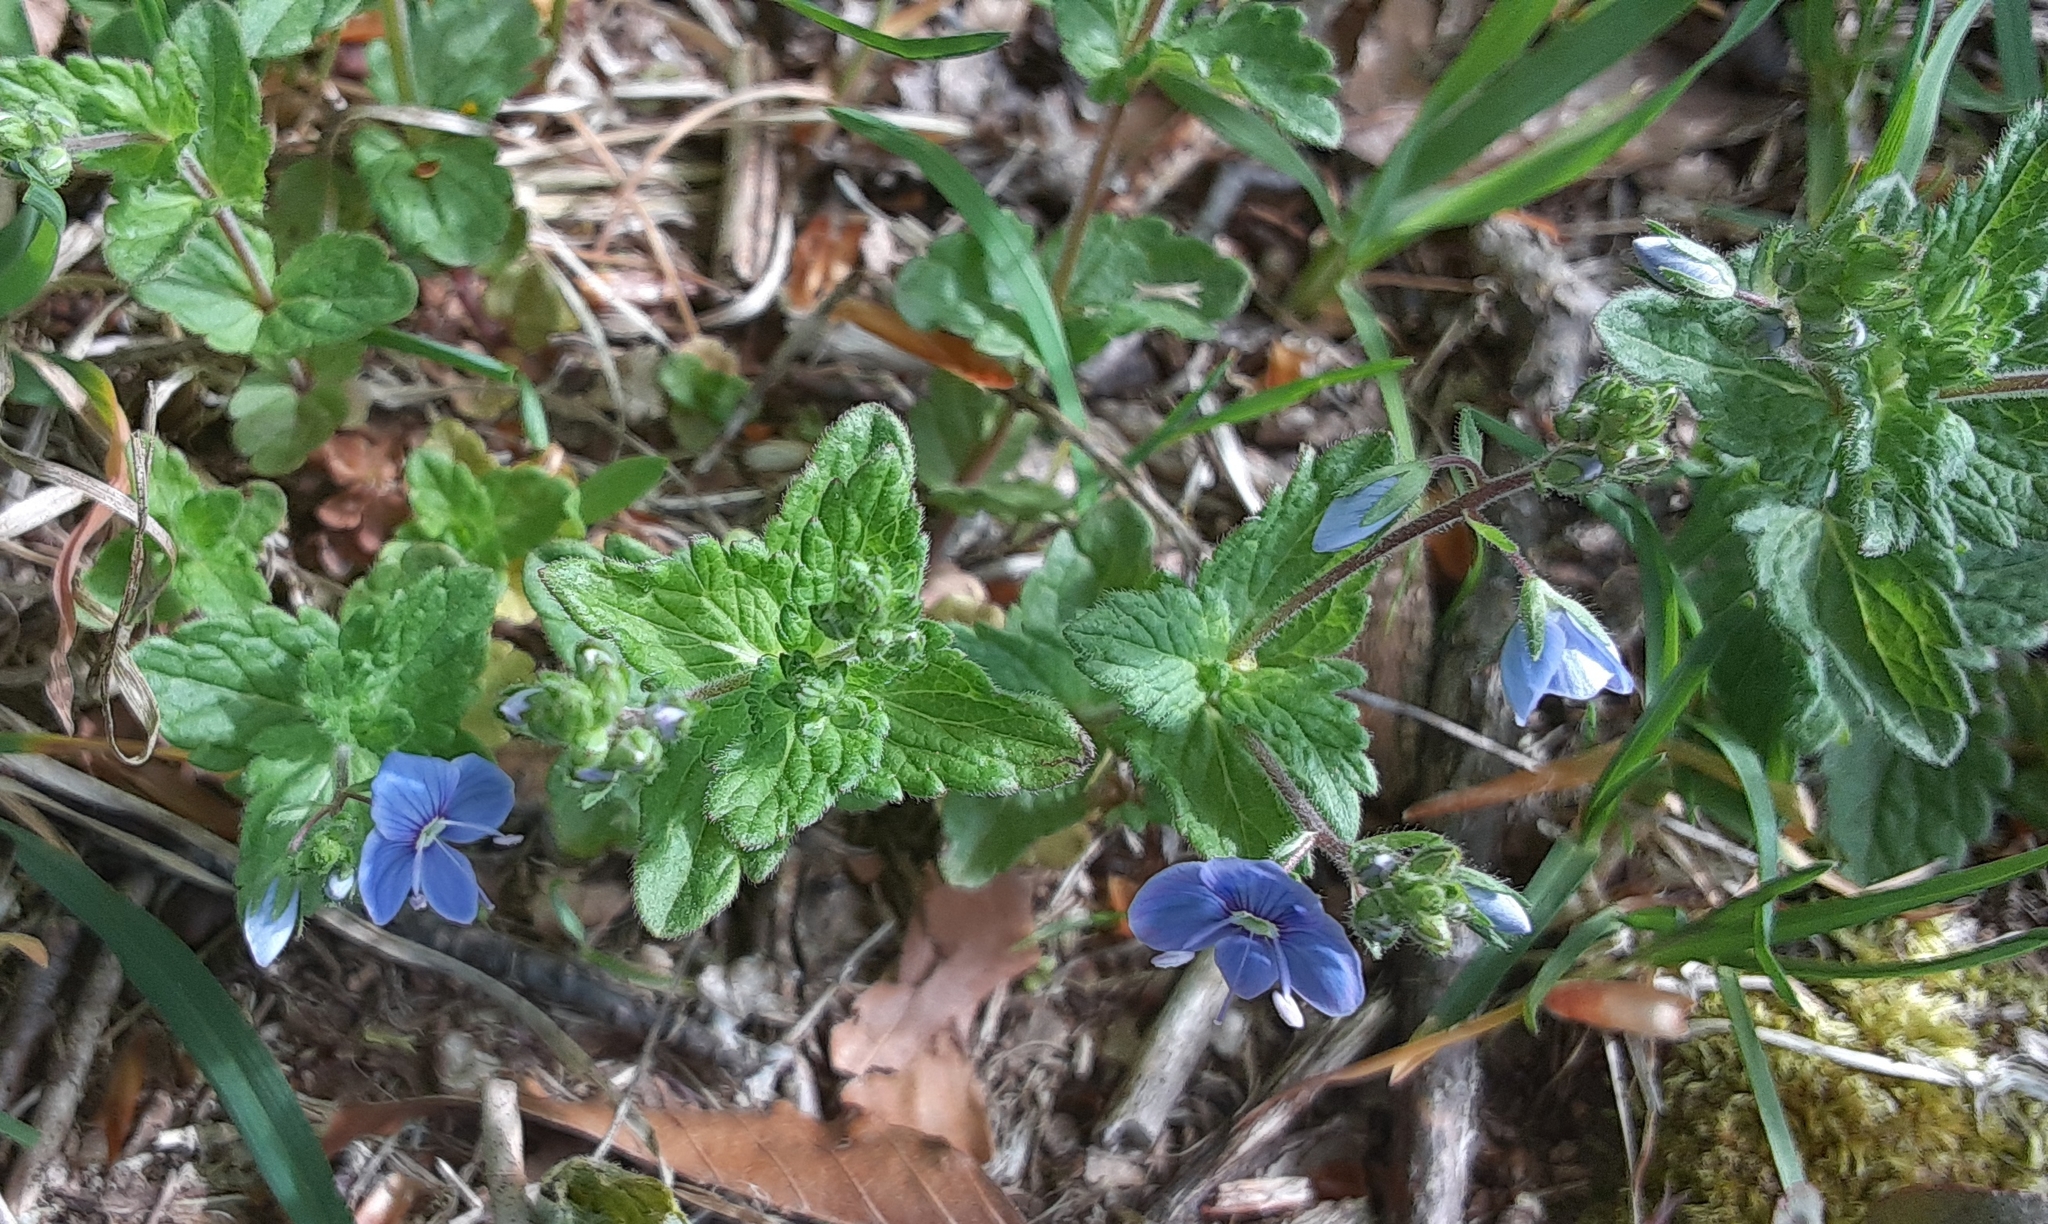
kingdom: Plantae
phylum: Tracheophyta
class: Magnoliopsida
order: Lamiales
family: Plantaginaceae
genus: Veronica
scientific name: Veronica chamaedrys
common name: Germander speedwell
